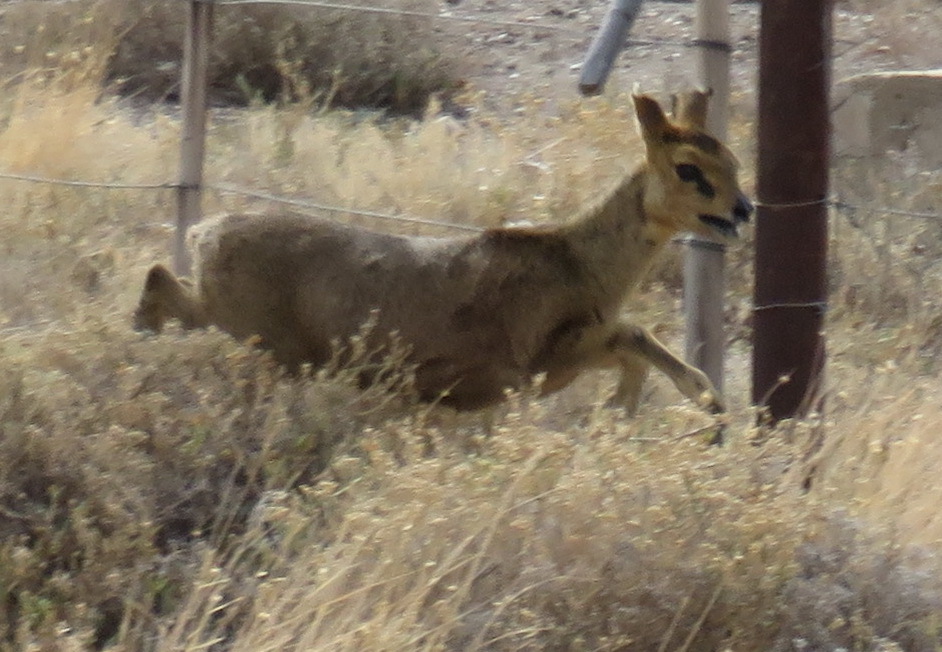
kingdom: Animalia
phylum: Chordata
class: Mammalia
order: Artiodactyla
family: Bovidae
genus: Oreotragus
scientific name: Oreotragus oreotragus
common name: Klipspringer
